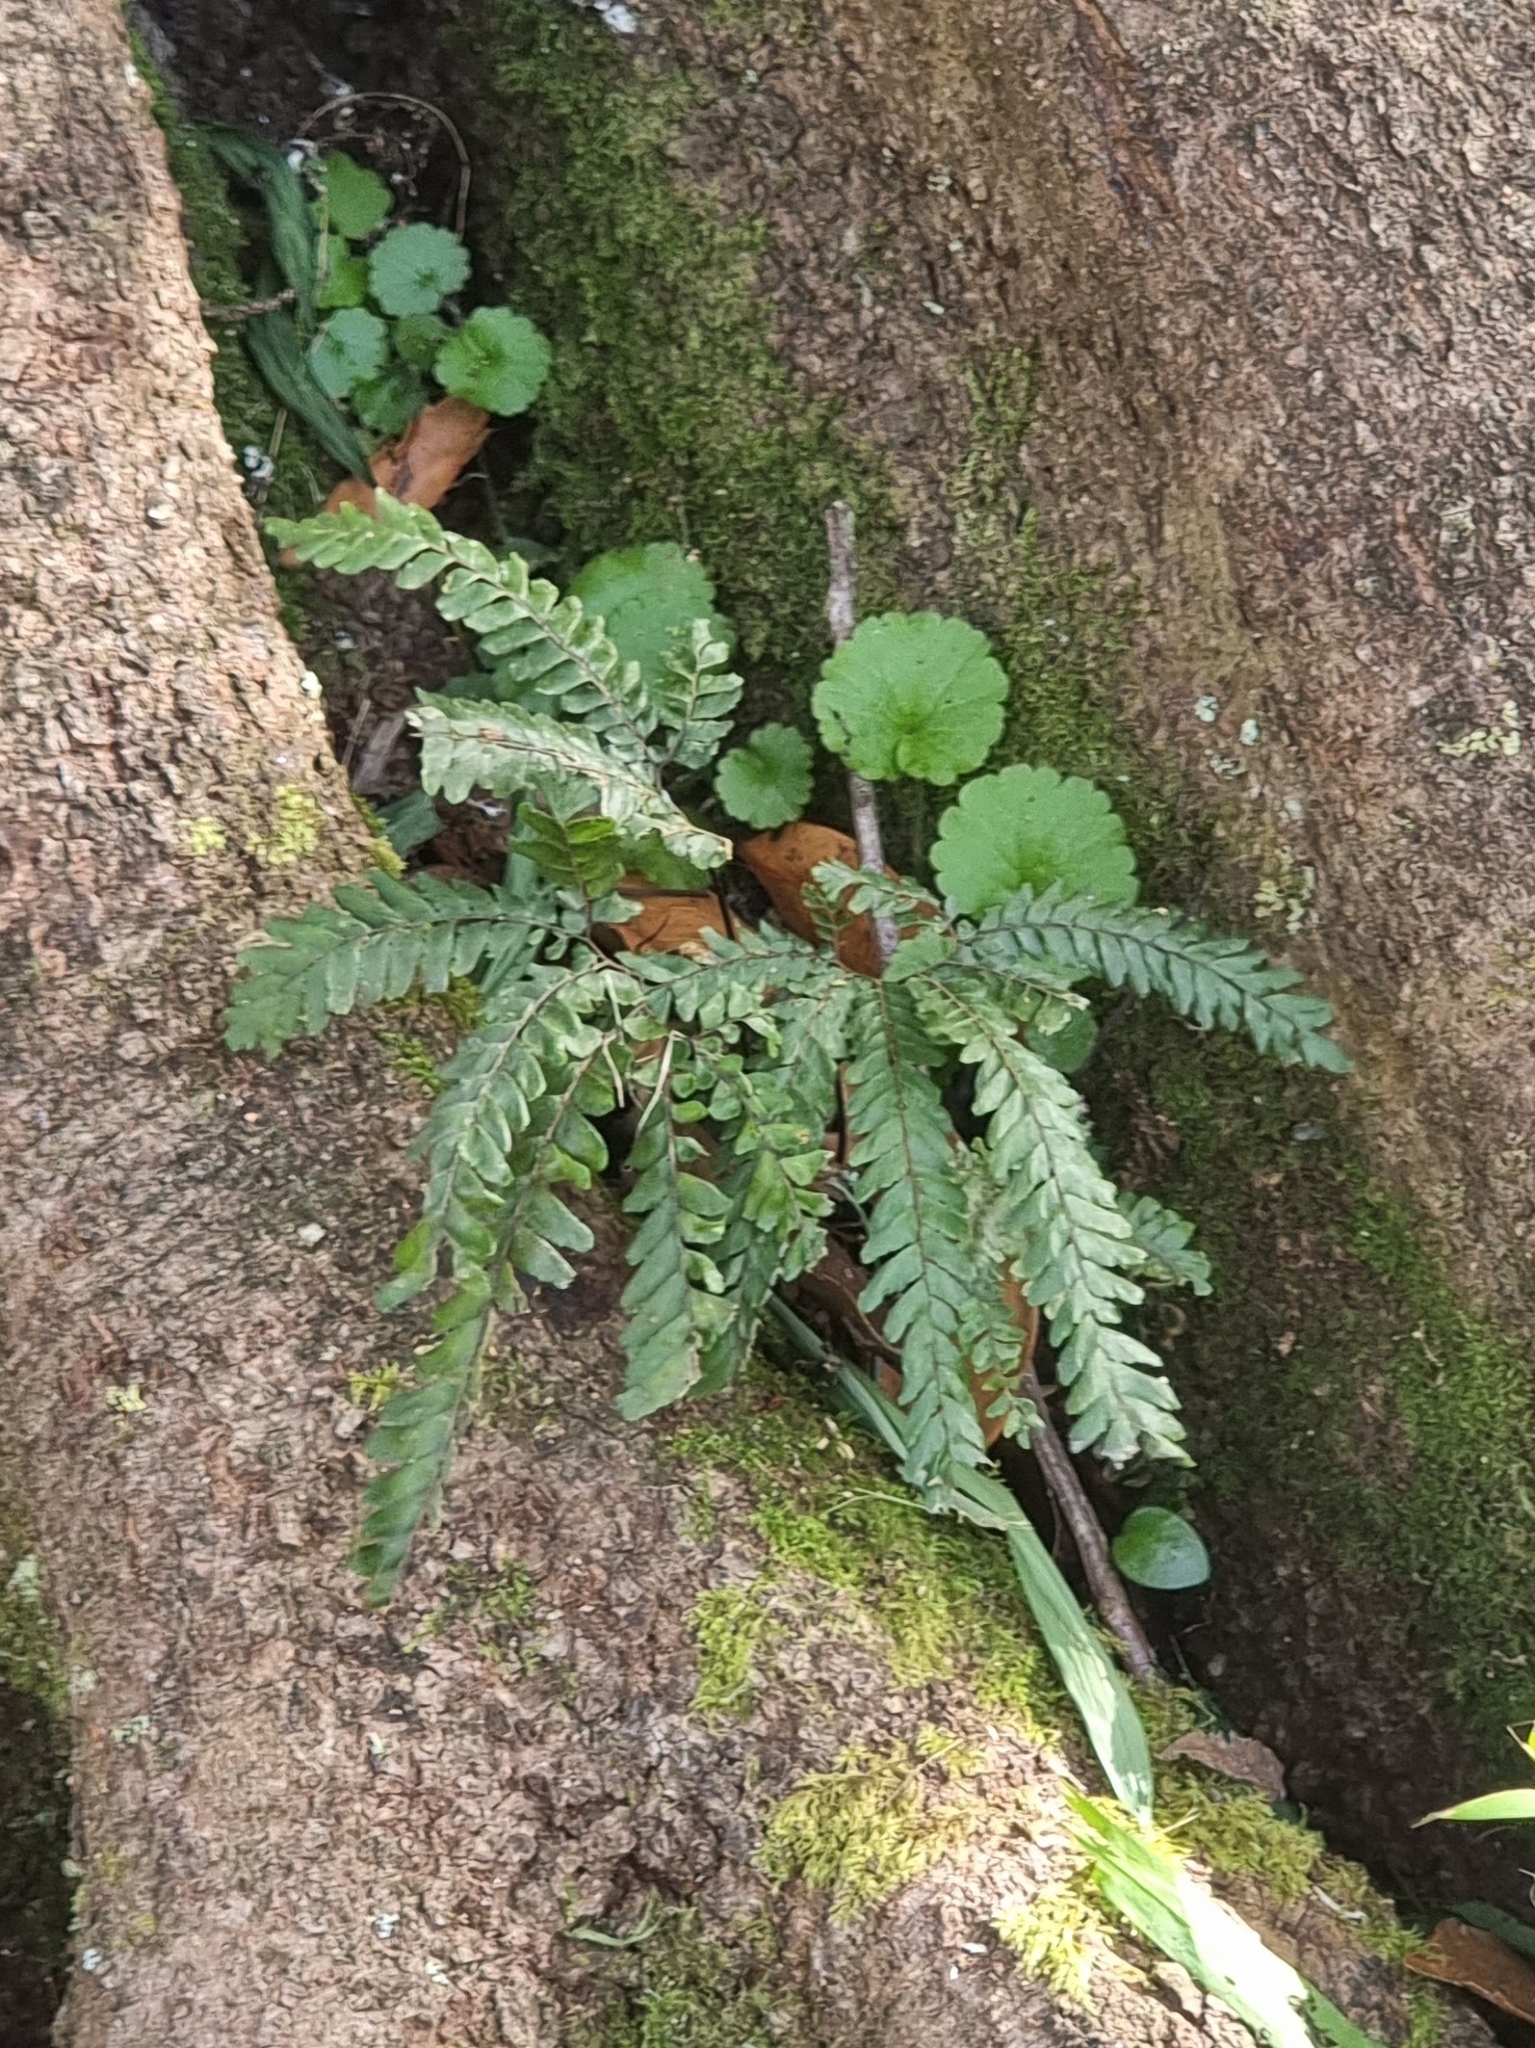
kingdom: Plantae
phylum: Tracheophyta
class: Polypodiopsida
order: Polypodiales
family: Pteridaceae
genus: Adiantum
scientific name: Adiantum hispidulum
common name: Rough maidenhair
